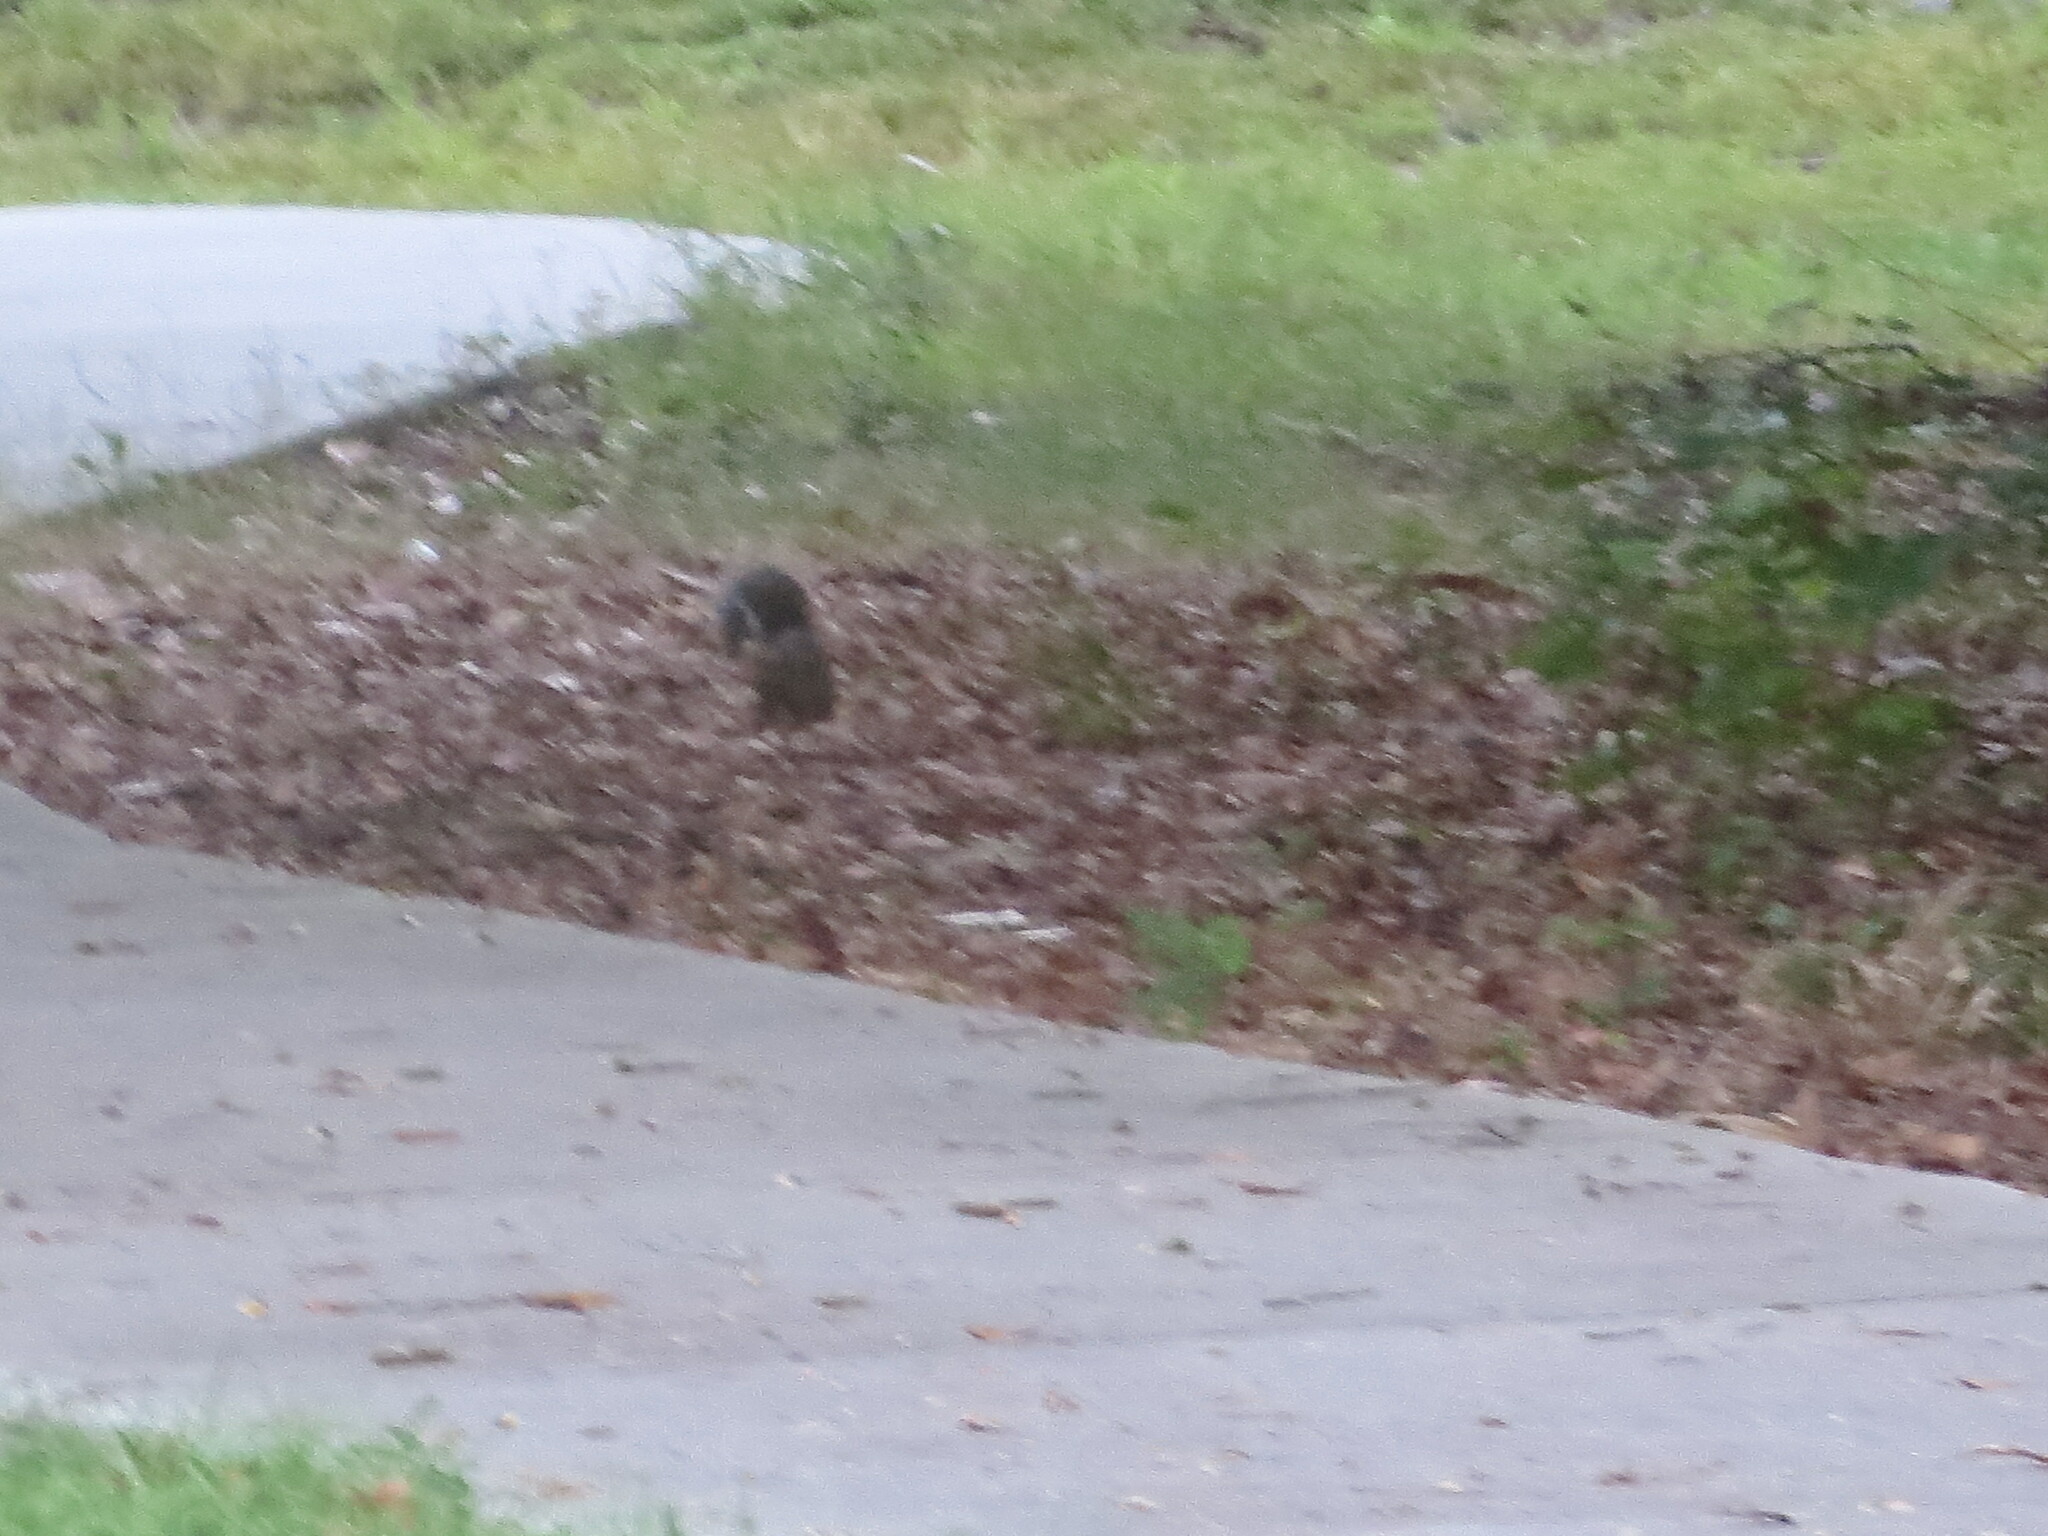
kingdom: Animalia
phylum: Chordata
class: Mammalia
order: Rodentia
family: Sciuridae
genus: Sciurus
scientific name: Sciurus carolinensis
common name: Eastern gray squirrel
